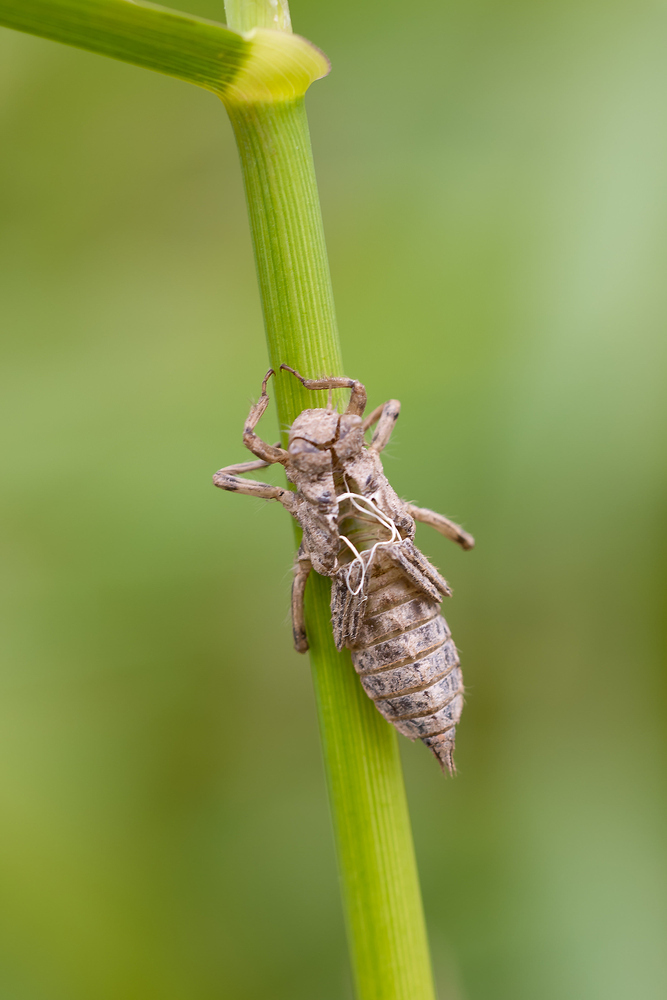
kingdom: Animalia
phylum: Arthropoda
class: Insecta
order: Odonata
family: Libellulidae
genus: Orthetrum
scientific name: Orthetrum cancellatum
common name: Black-tailed skimmer
